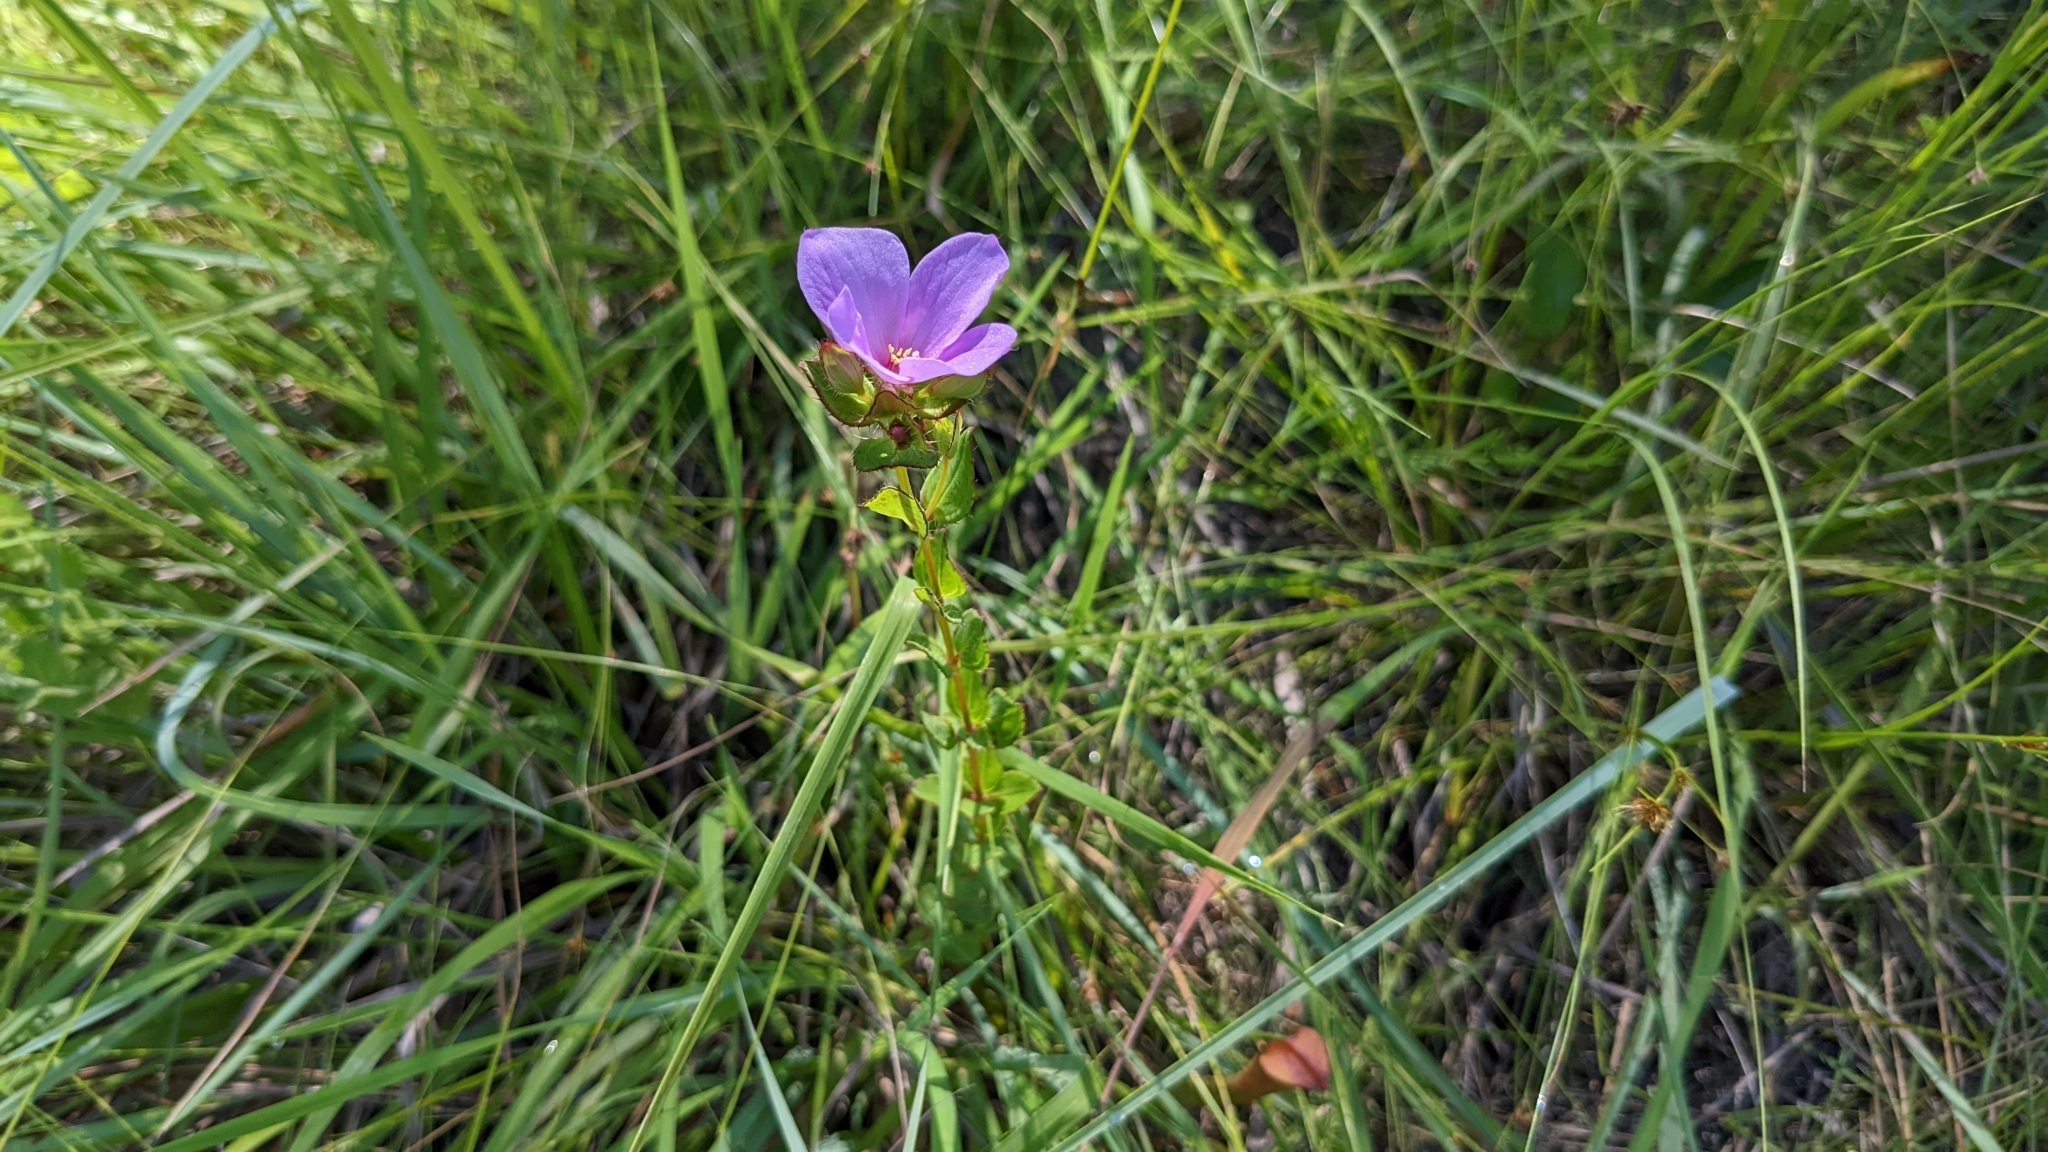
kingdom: Plantae
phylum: Tracheophyta
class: Magnoliopsida
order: Myrtales
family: Melastomataceae
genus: Rhexia
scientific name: Rhexia petiolata
